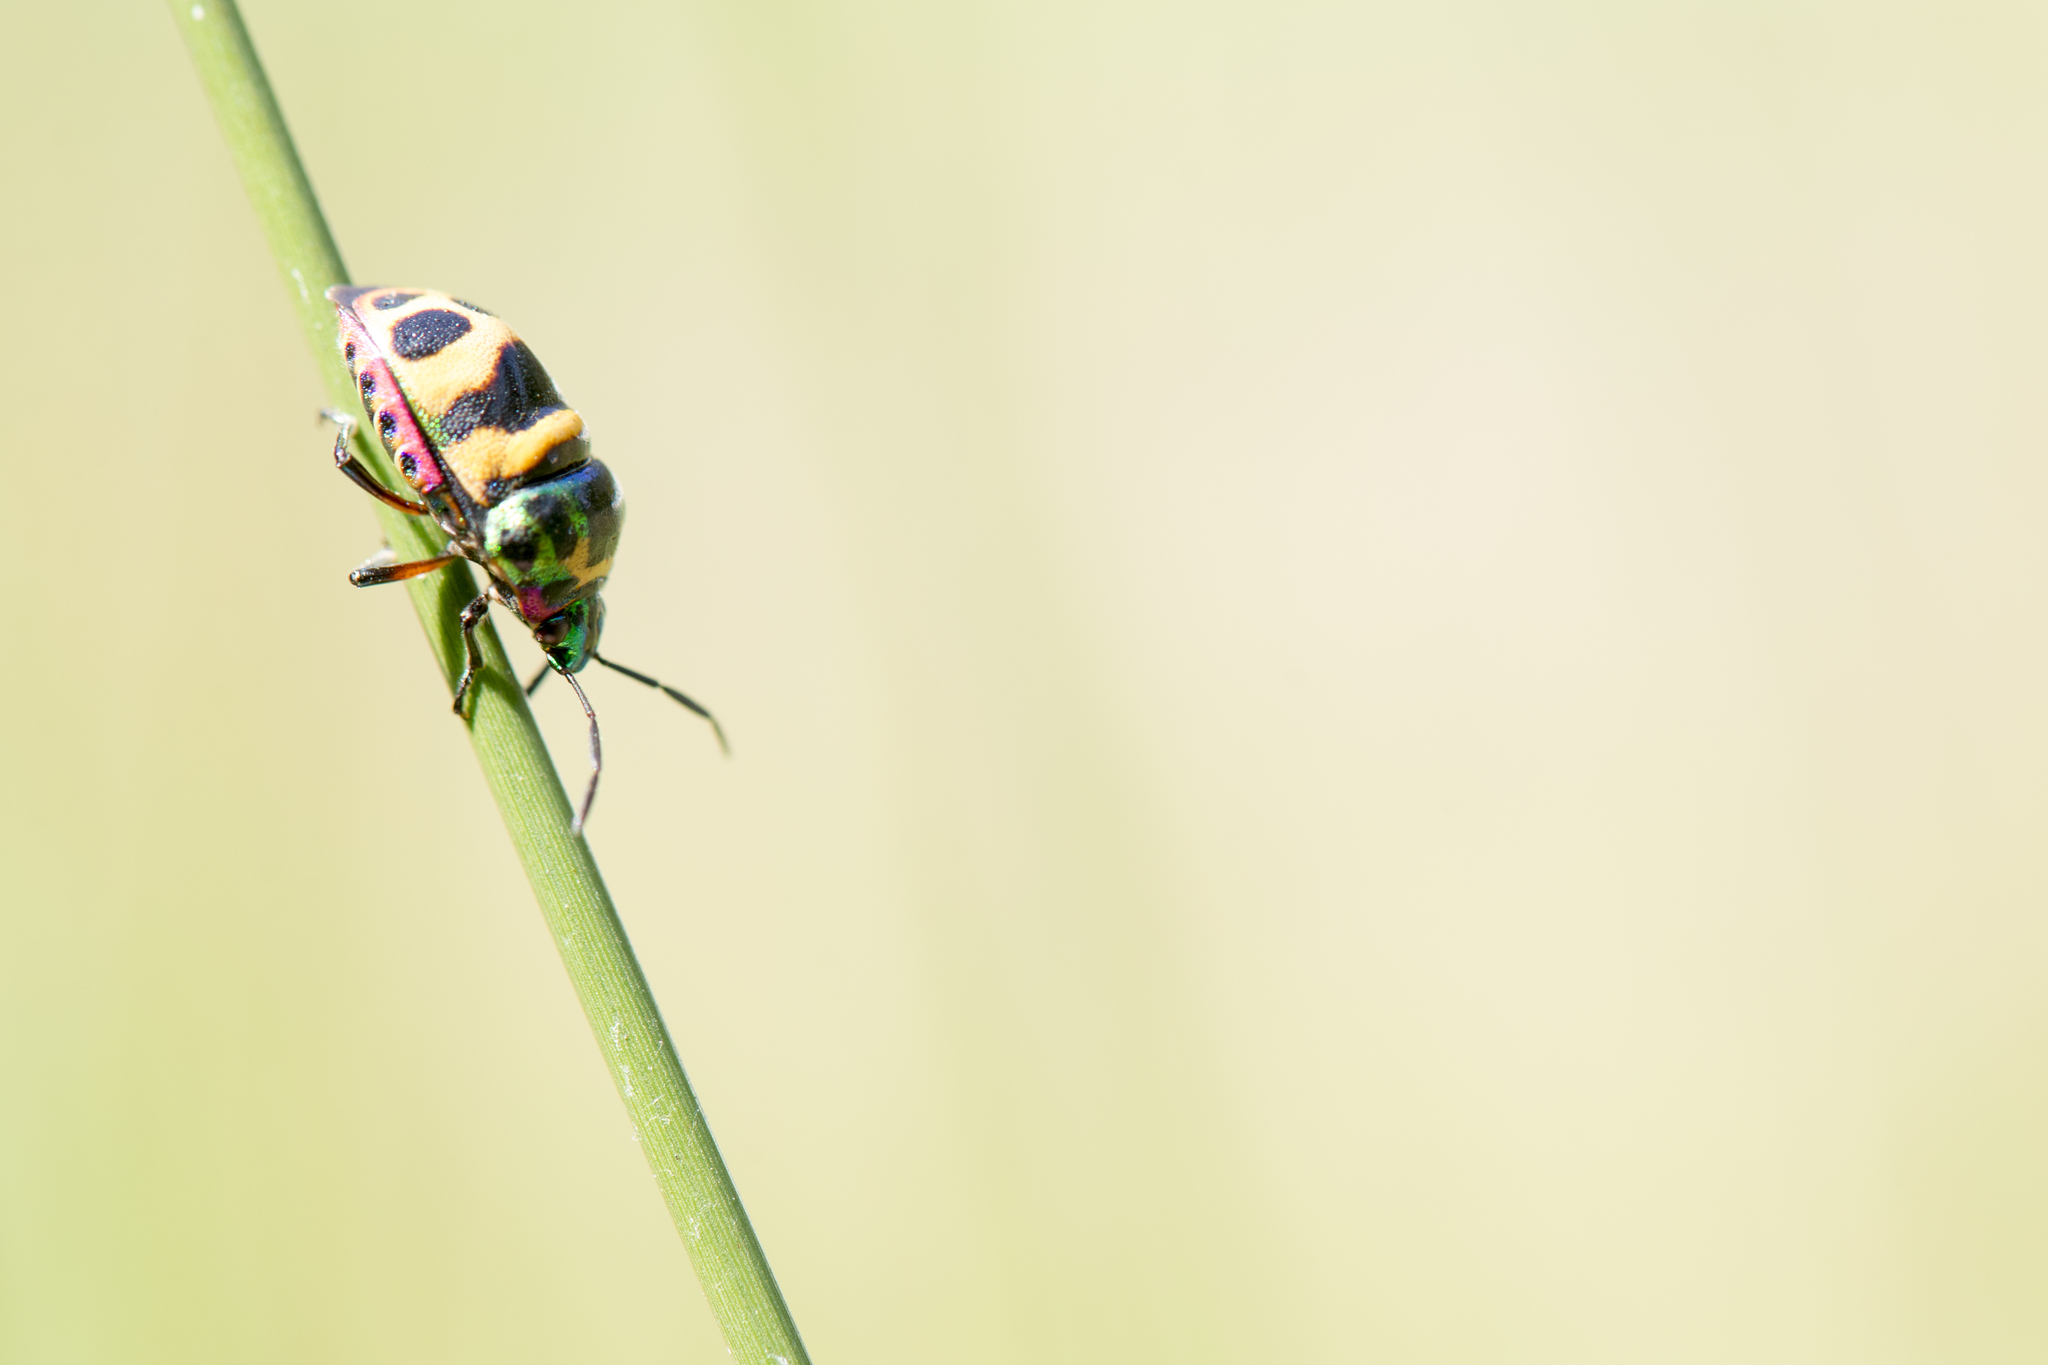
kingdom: Animalia
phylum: Arthropoda
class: Insecta
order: Hemiptera
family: Scutelleridae
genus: Chrysocoris
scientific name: Chrysocoris fascialis
